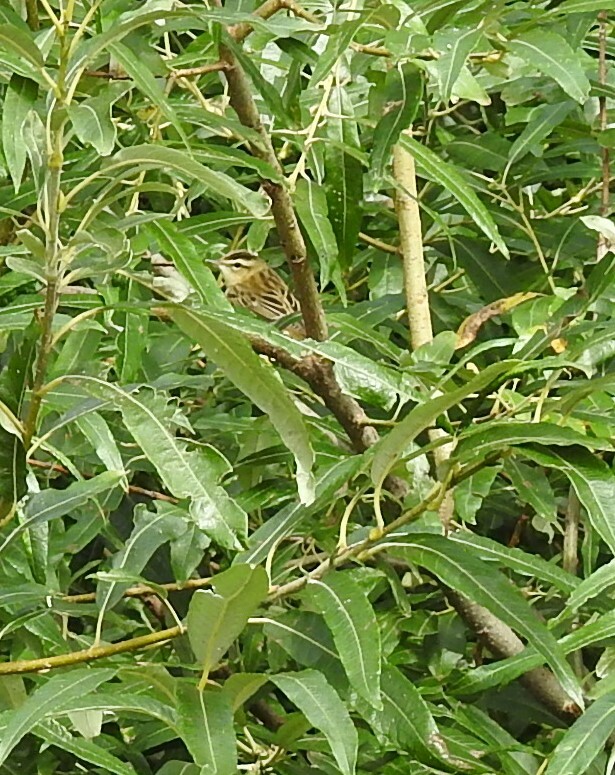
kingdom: Animalia
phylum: Chordata
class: Aves
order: Passeriformes
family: Acrocephalidae
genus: Acrocephalus
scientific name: Acrocephalus schoenobaenus
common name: Sedge warbler
